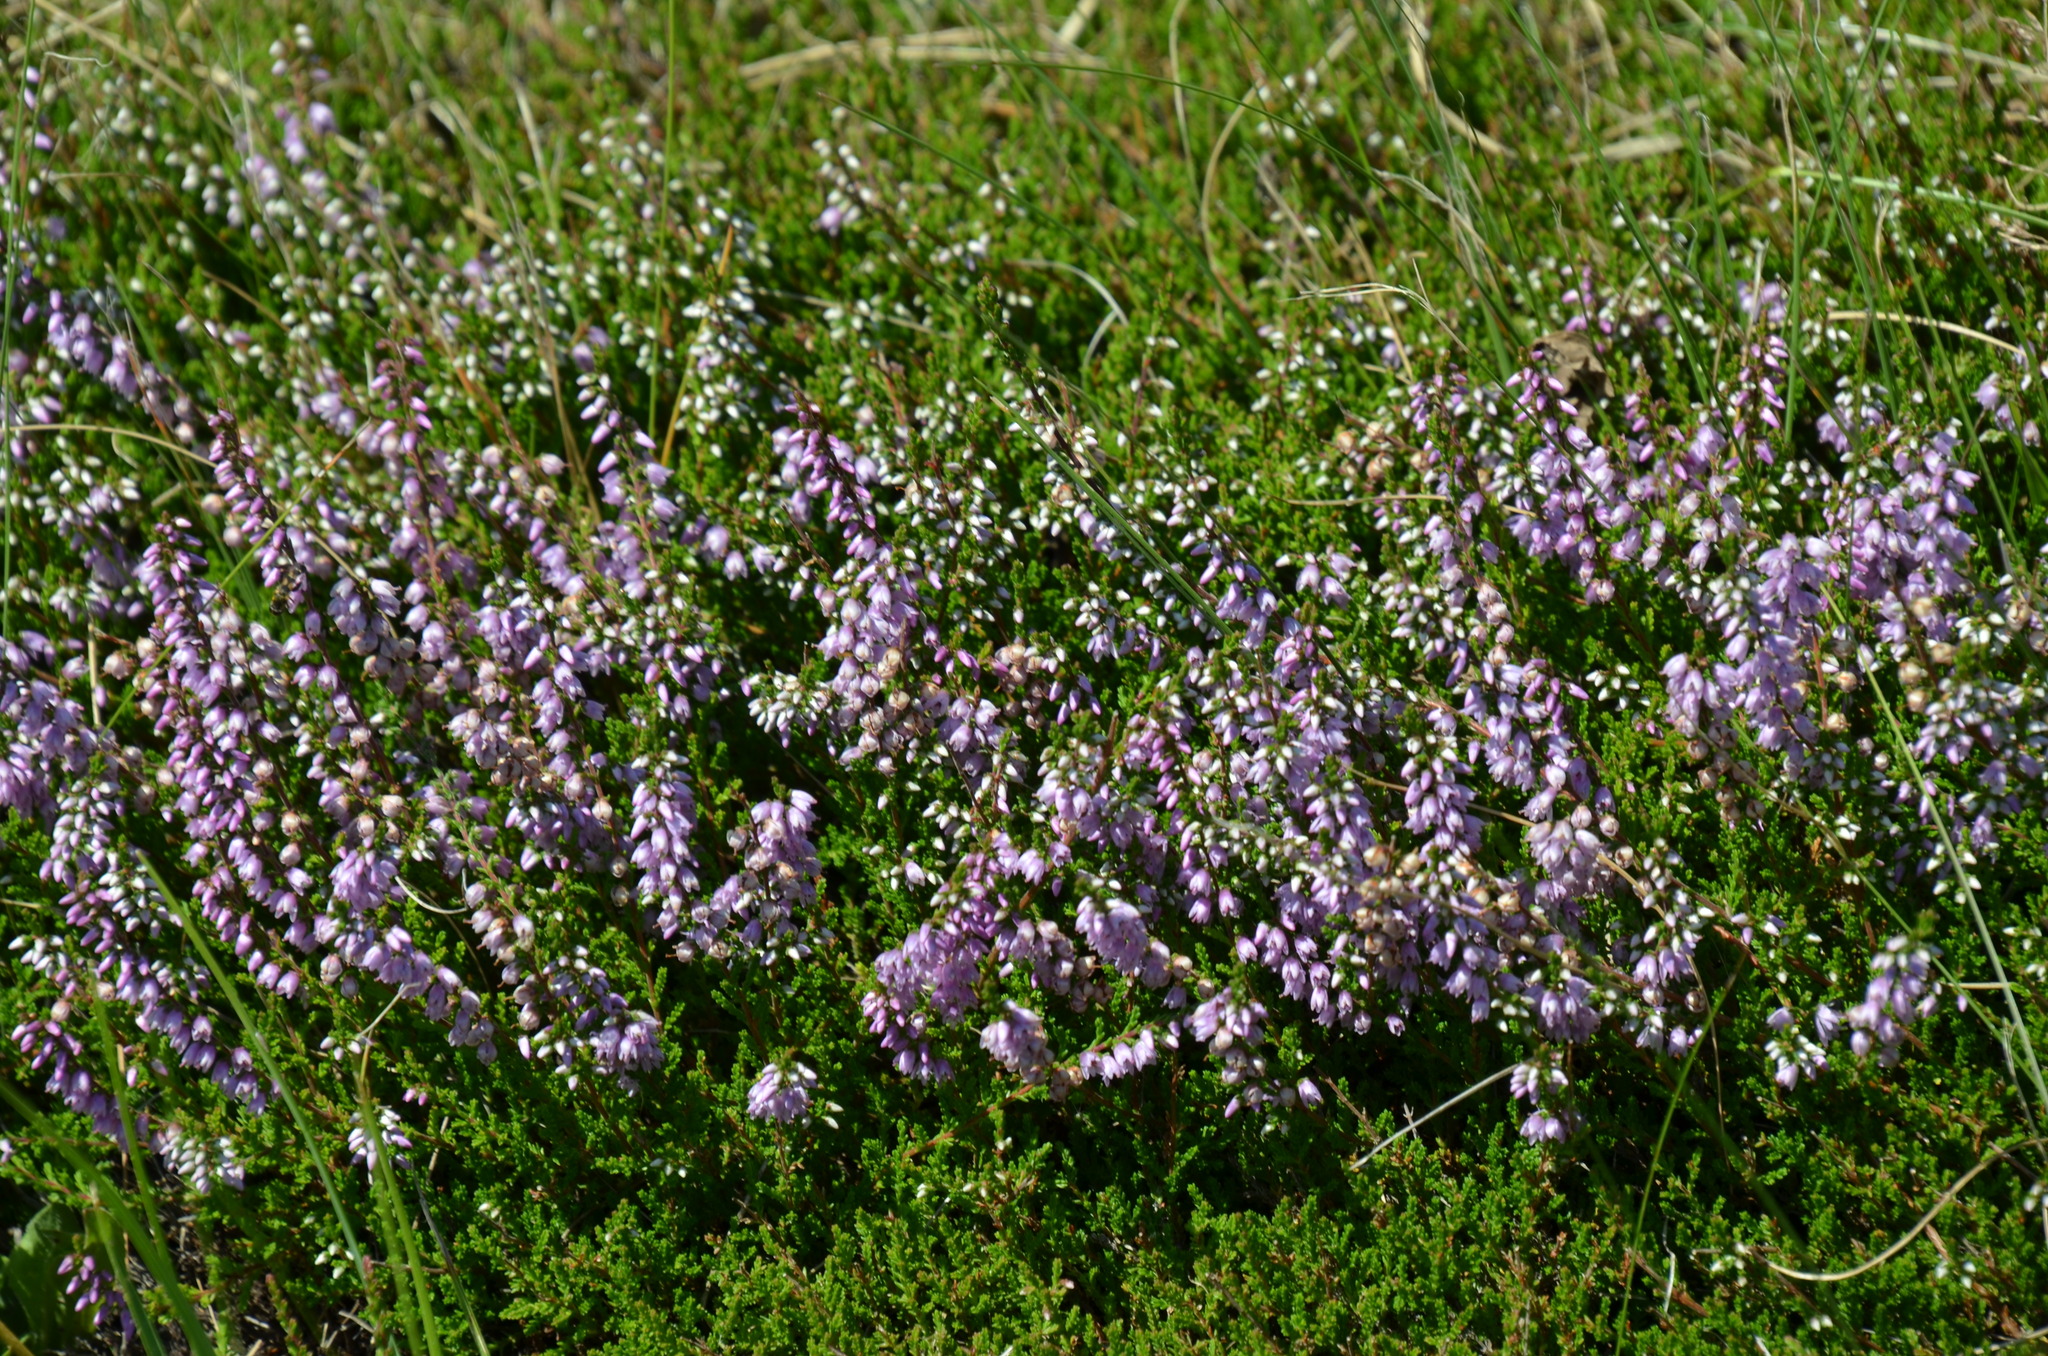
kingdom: Plantae
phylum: Tracheophyta
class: Magnoliopsida
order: Ericales
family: Ericaceae
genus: Calluna
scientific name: Calluna vulgaris
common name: Heather
